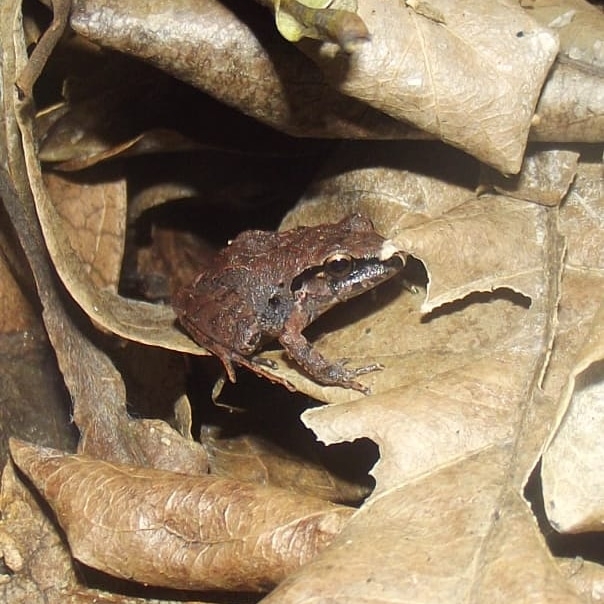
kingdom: Animalia
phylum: Chordata
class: Amphibia
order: Anura
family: Craugastoridae
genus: Craugastor
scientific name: Craugastor loki
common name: Common leaf-litter frog
